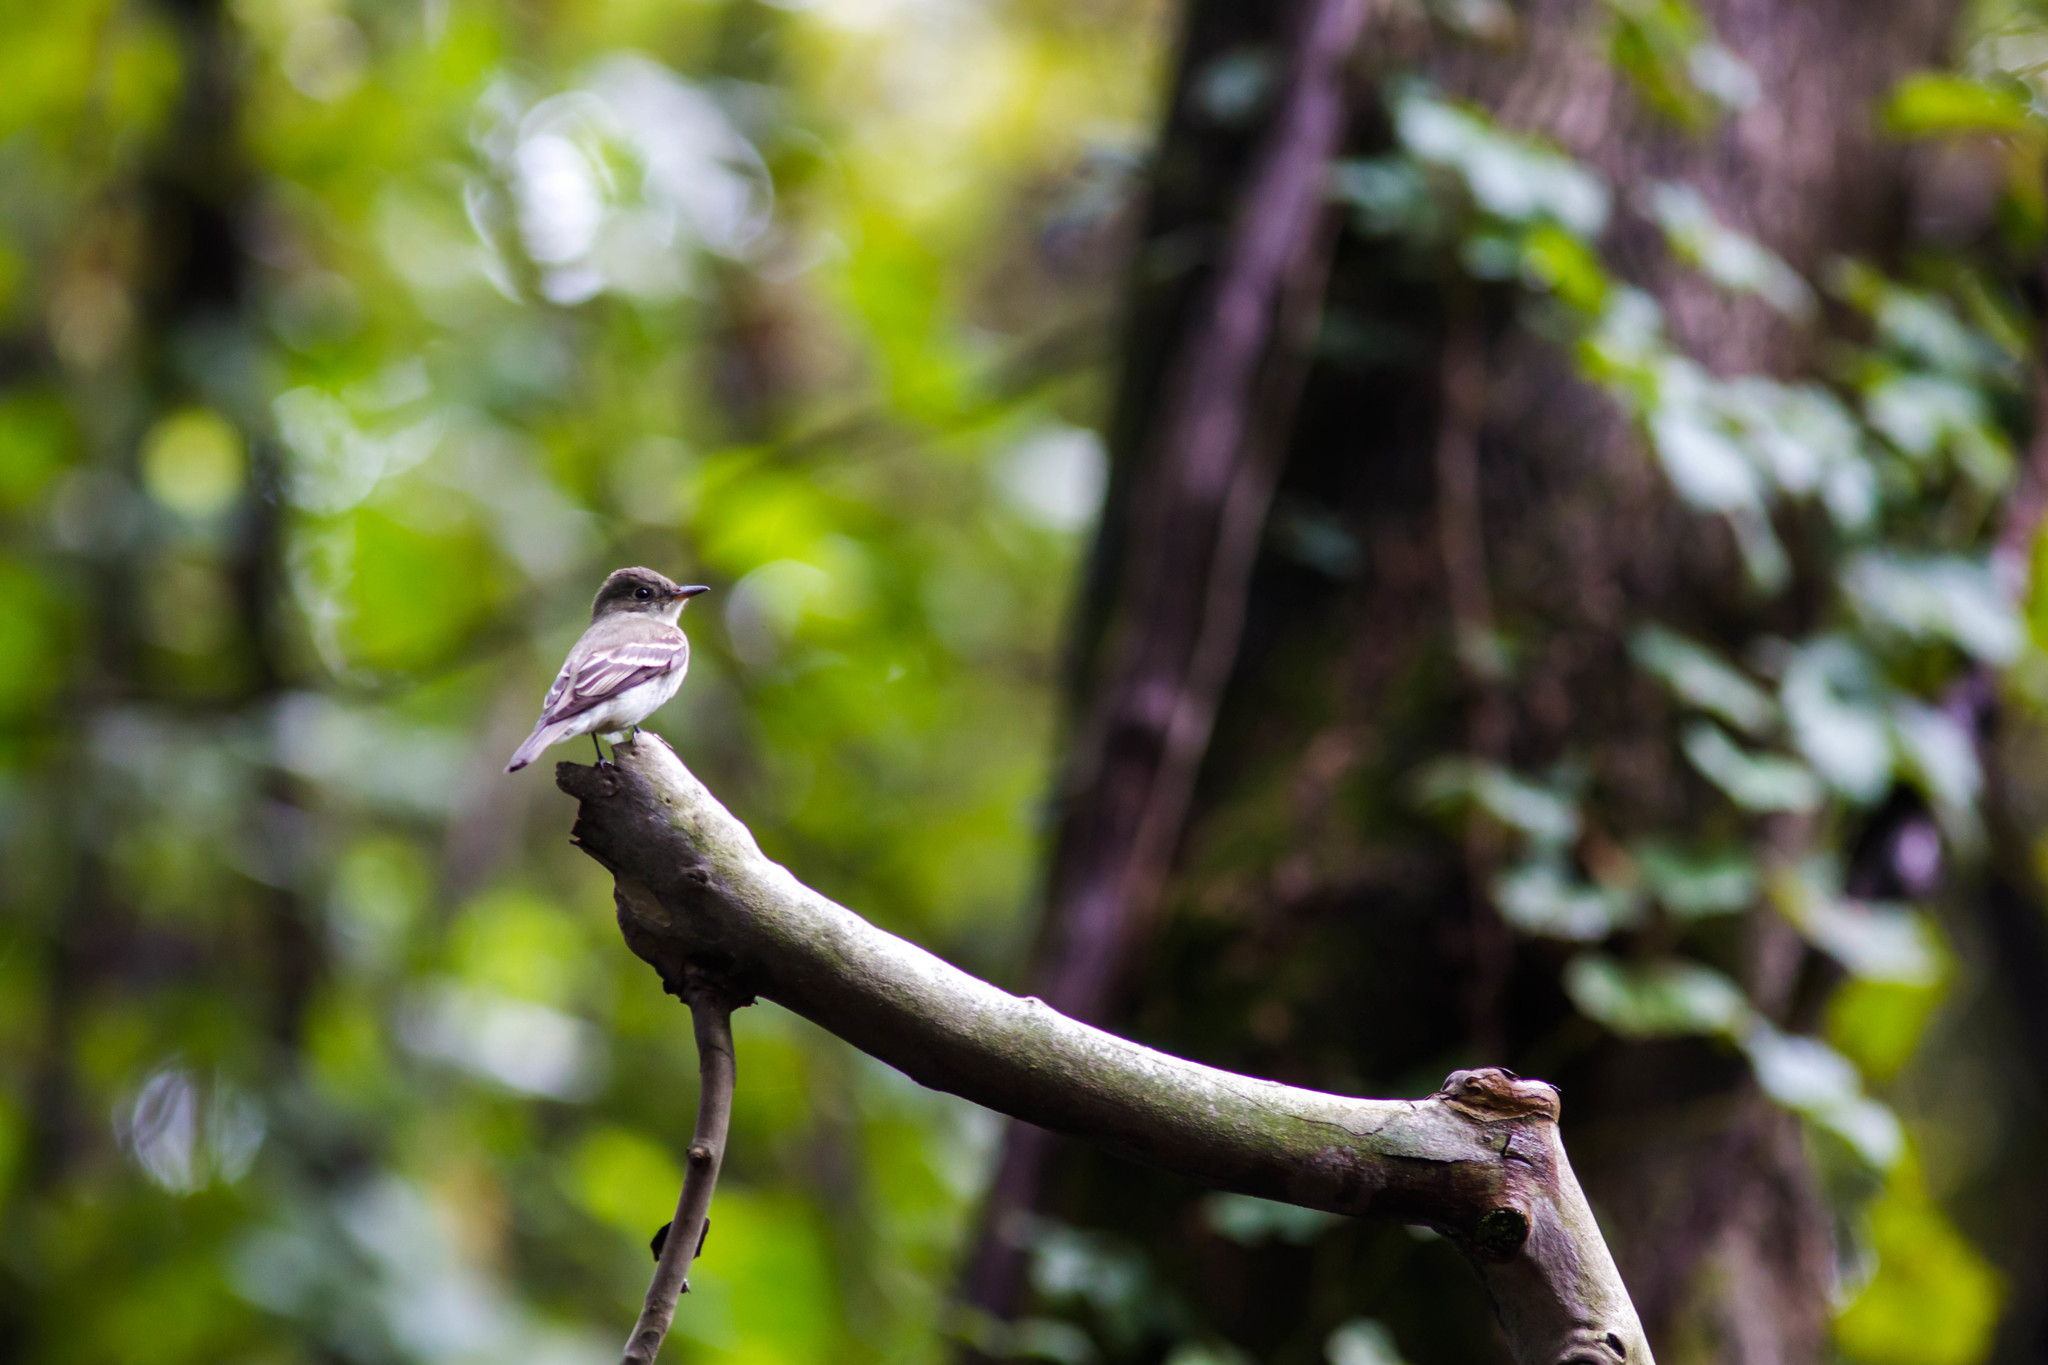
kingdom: Animalia
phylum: Chordata
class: Aves
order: Passeriformes
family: Tyrannidae
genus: Contopus
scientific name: Contopus virens
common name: Eastern wood-pewee
